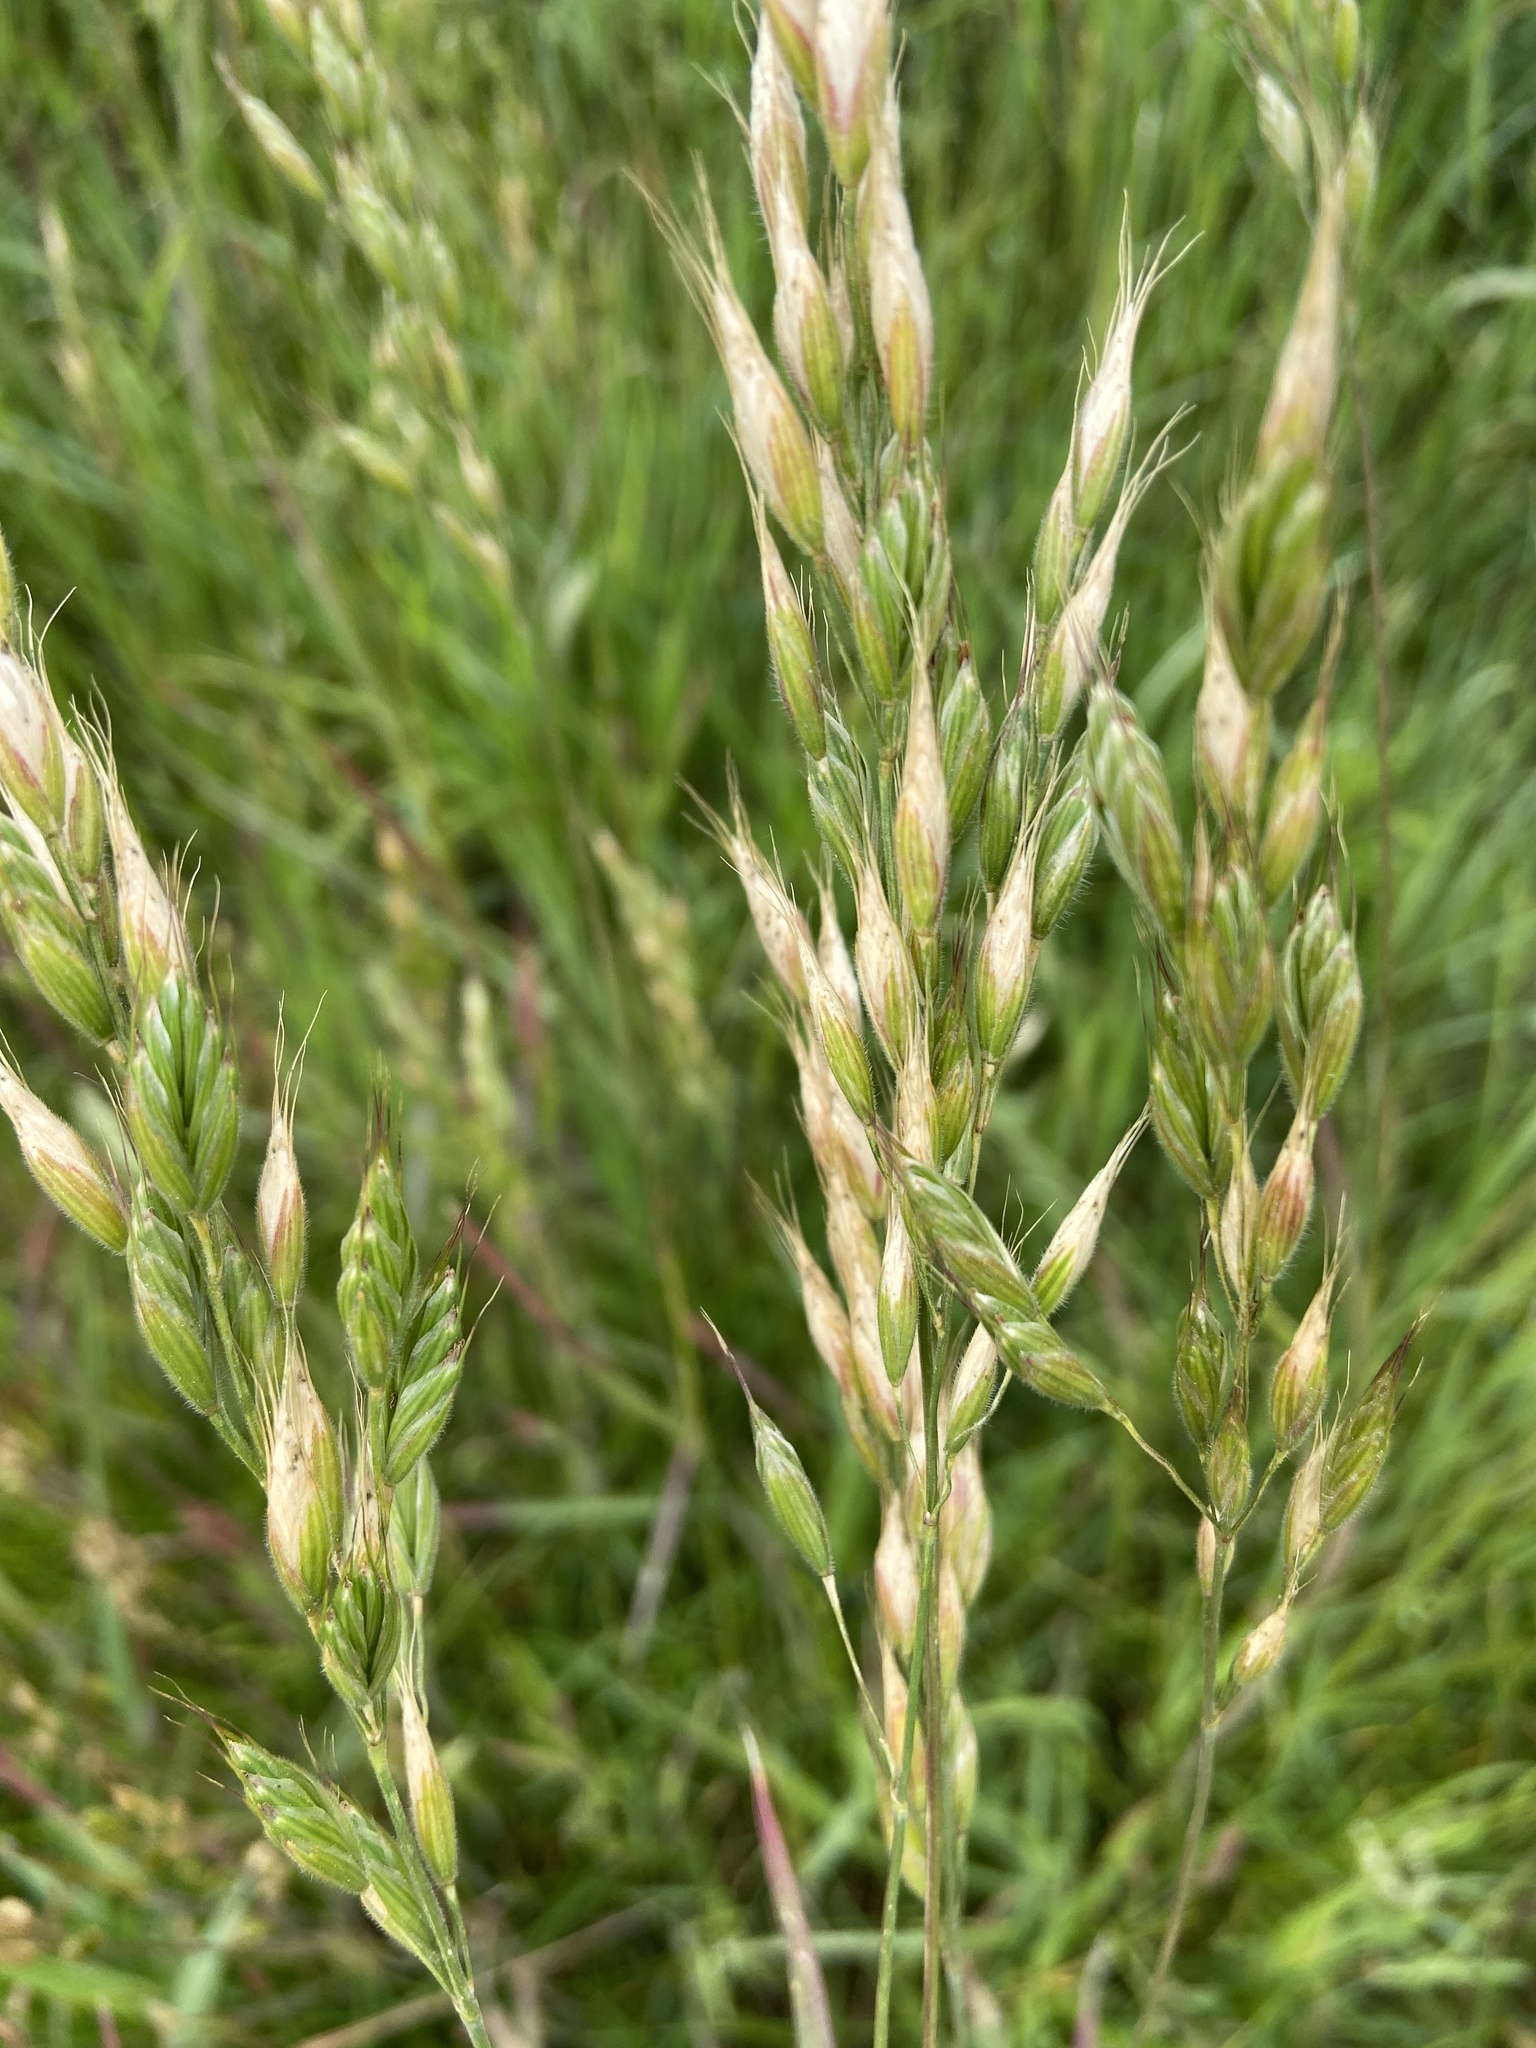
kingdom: Plantae
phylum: Tracheophyta
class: Liliopsida
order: Poales
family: Poaceae
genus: Bromus
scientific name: Bromus hordeaceus
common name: Soft brome
